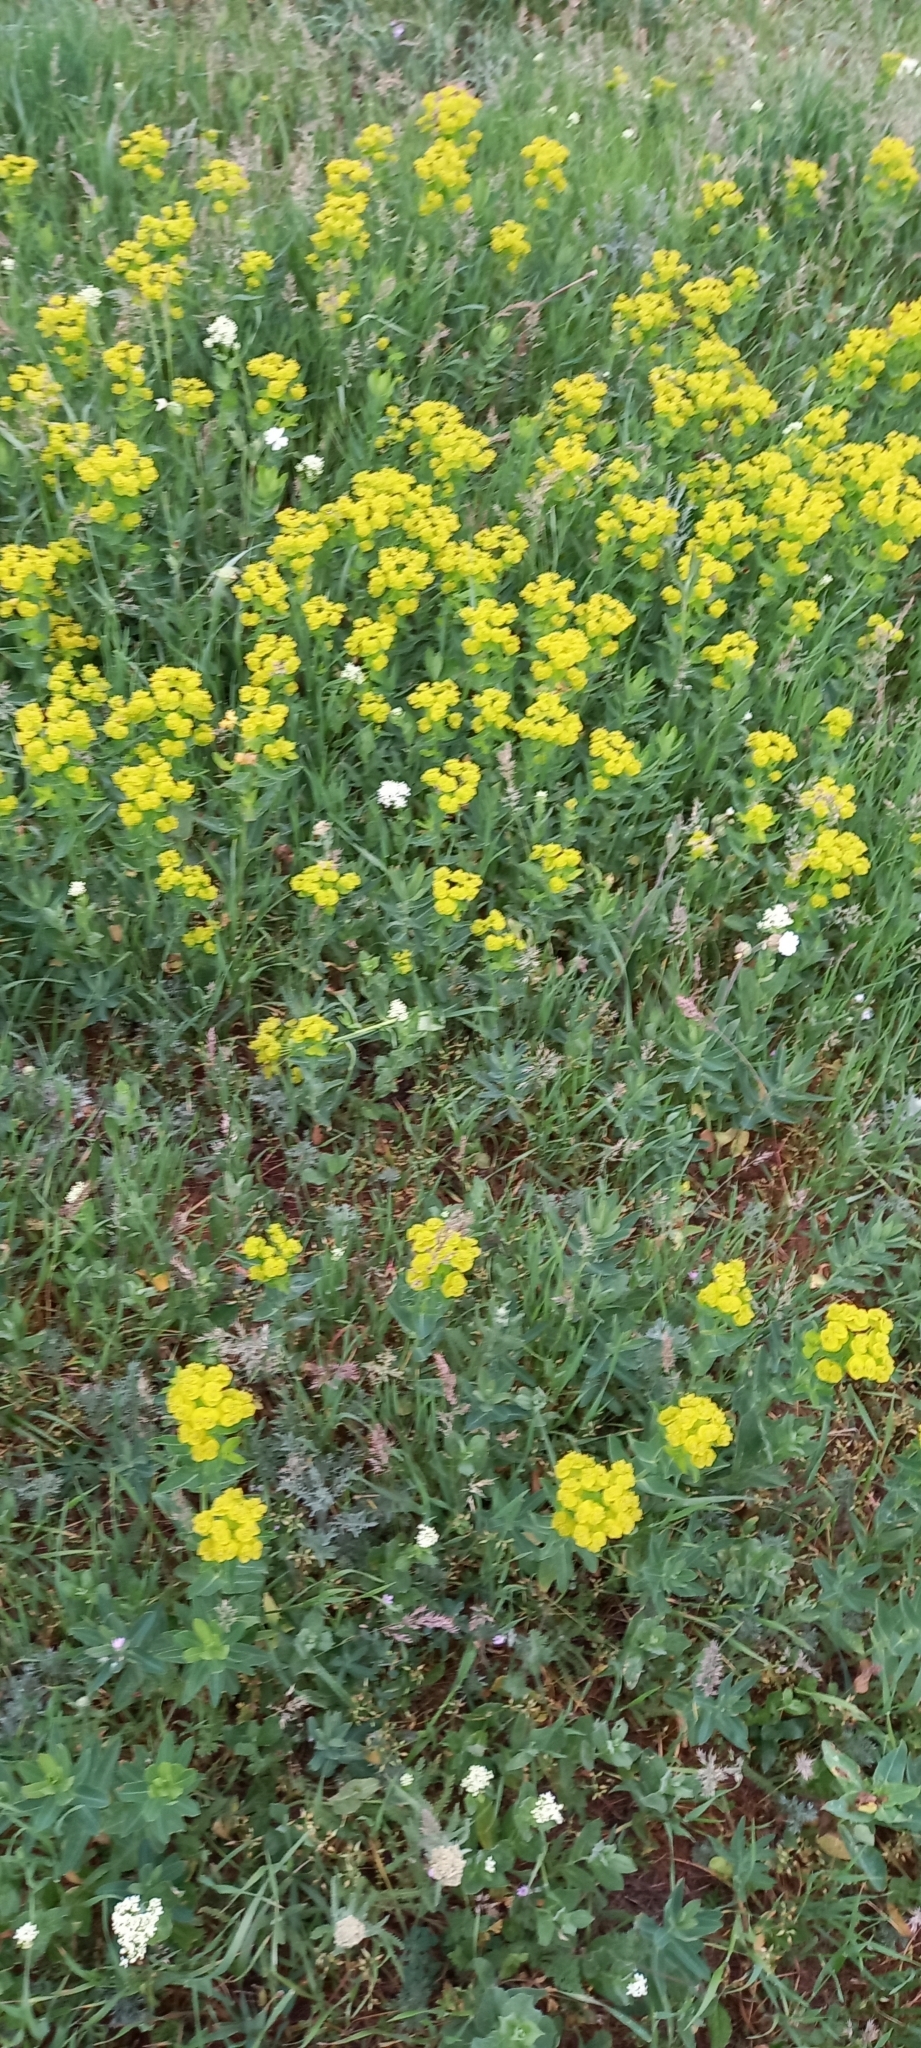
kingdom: Plantae
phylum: Tracheophyta
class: Magnoliopsida
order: Malpighiales
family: Euphorbiaceae
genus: Euphorbia
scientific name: Euphorbia iberica
